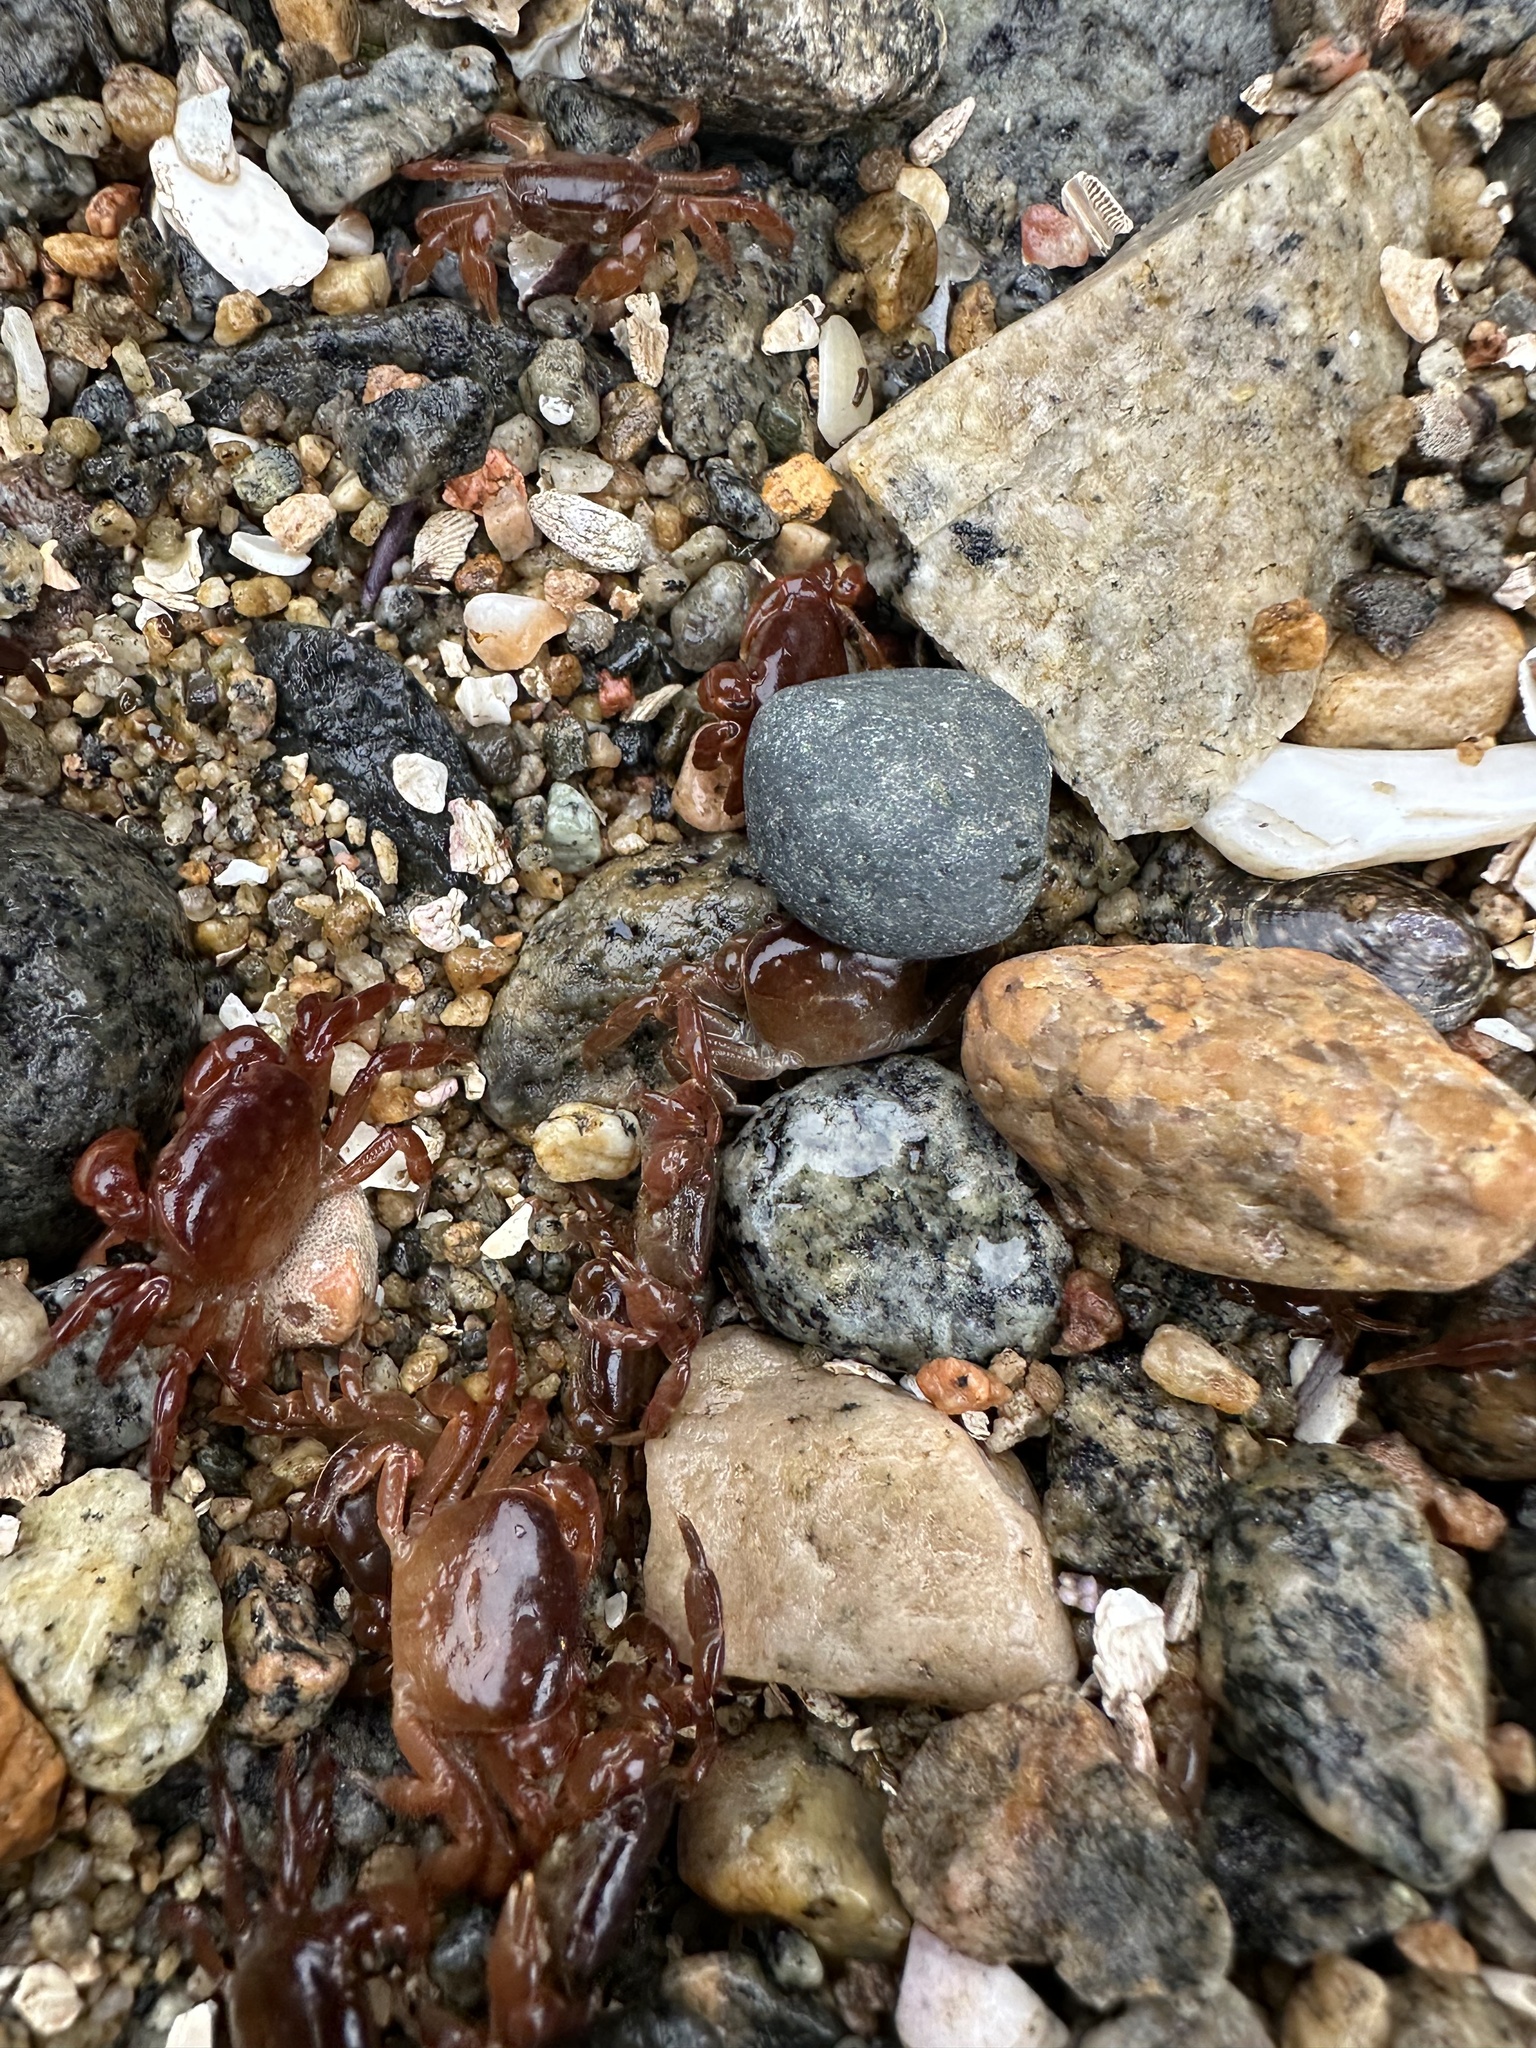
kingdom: Animalia
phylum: Arthropoda
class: Malacostraca
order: Decapoda
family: Varunidae
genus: Cyclograpsus
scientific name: Cyclograpsus cinereus
